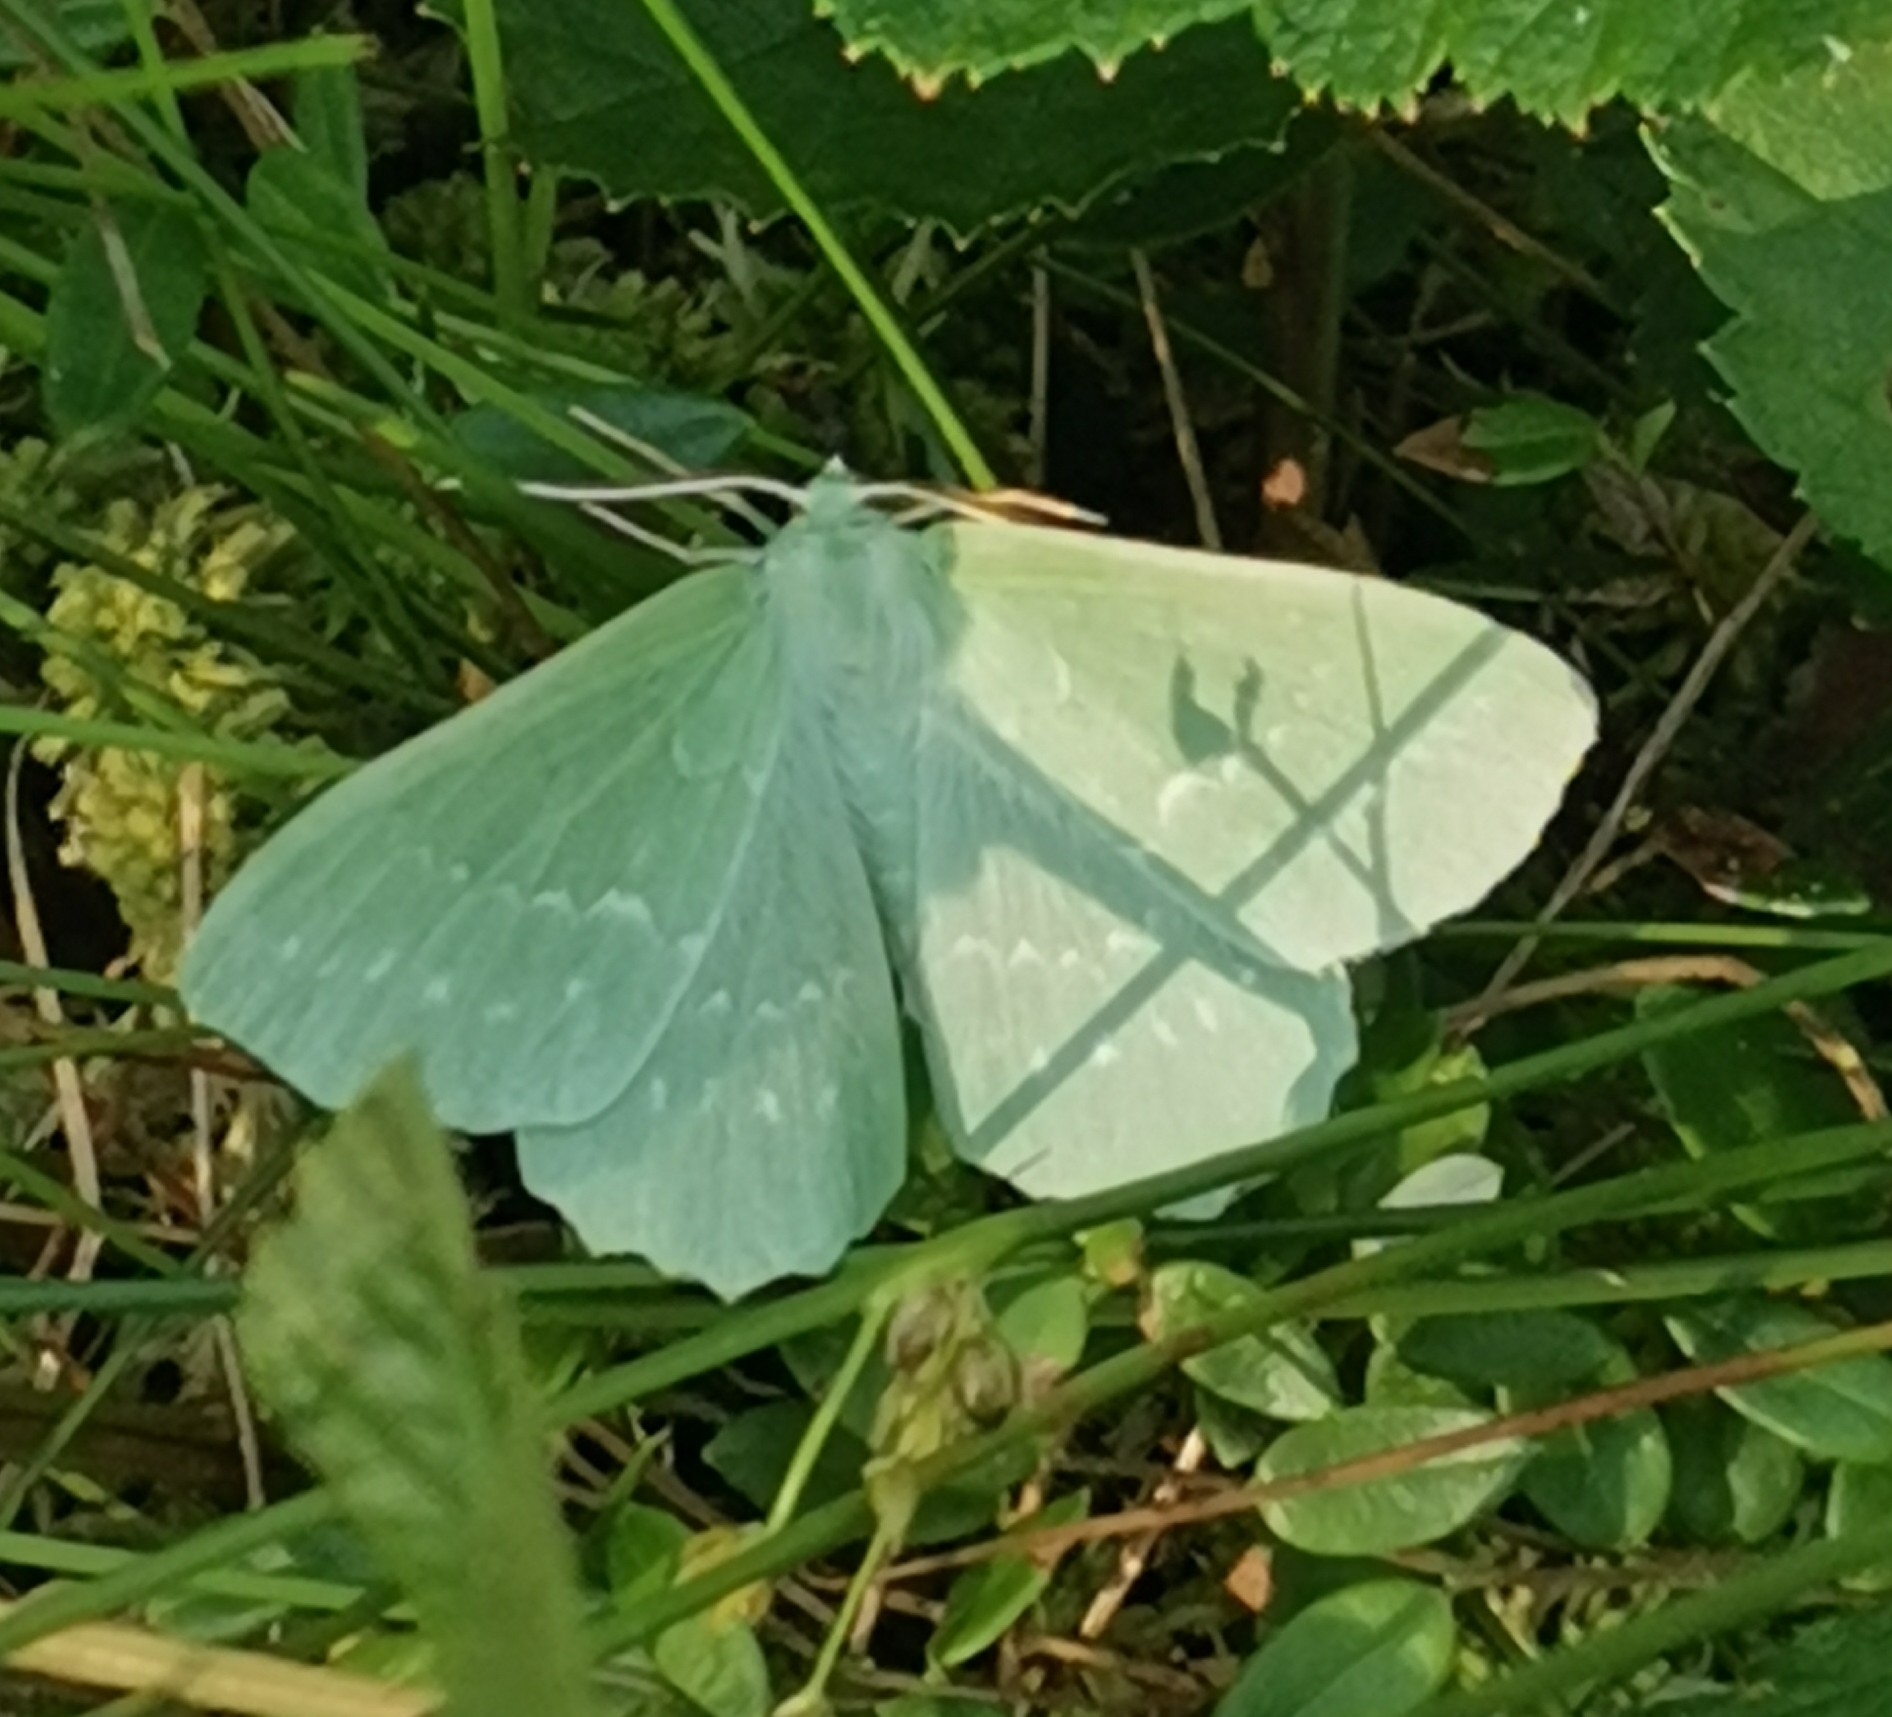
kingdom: Animalia
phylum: Arthropoda
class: Insecta
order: Lepidoptera
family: Geometridae
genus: Geometra
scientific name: Geometra papilionaria
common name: Large emerald
